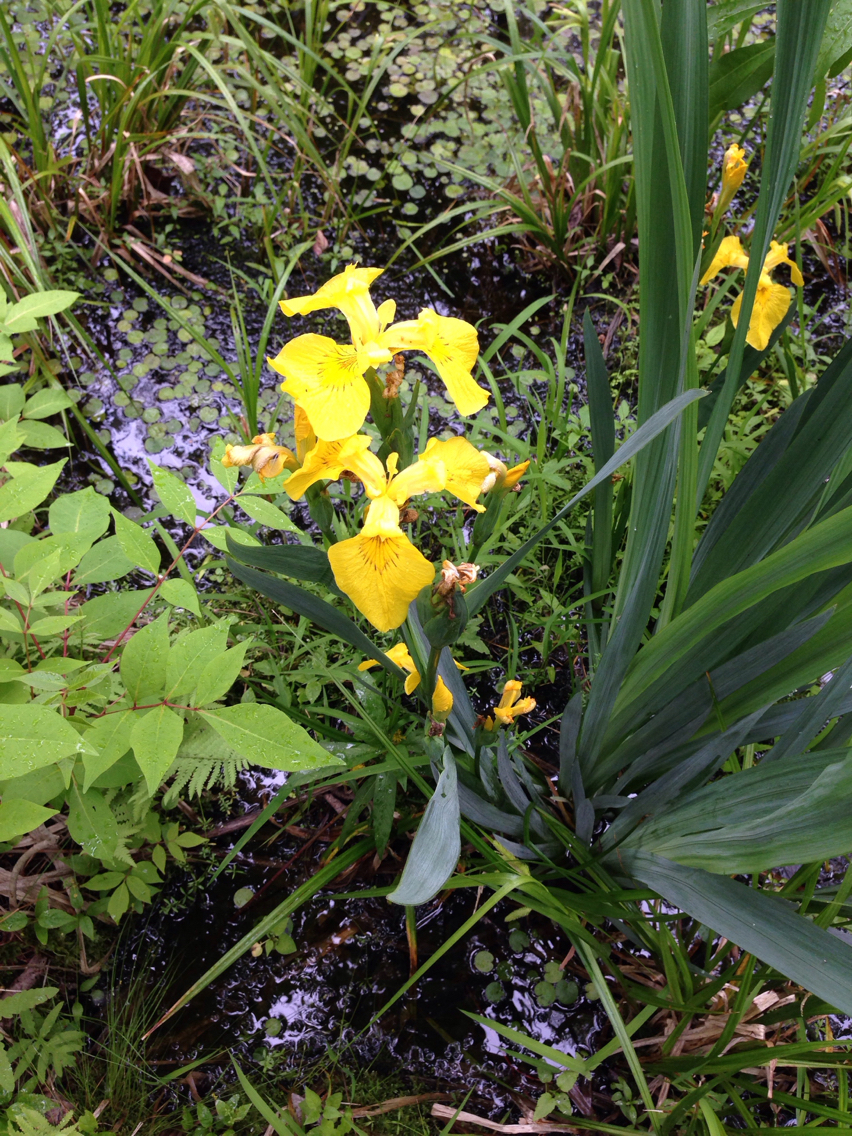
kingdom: Plantae
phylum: Tracheophyta
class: Liliopsida
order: Asparagales
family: Iridaceae
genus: Iris
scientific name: Iris pseudacorus
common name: Yellow flag
